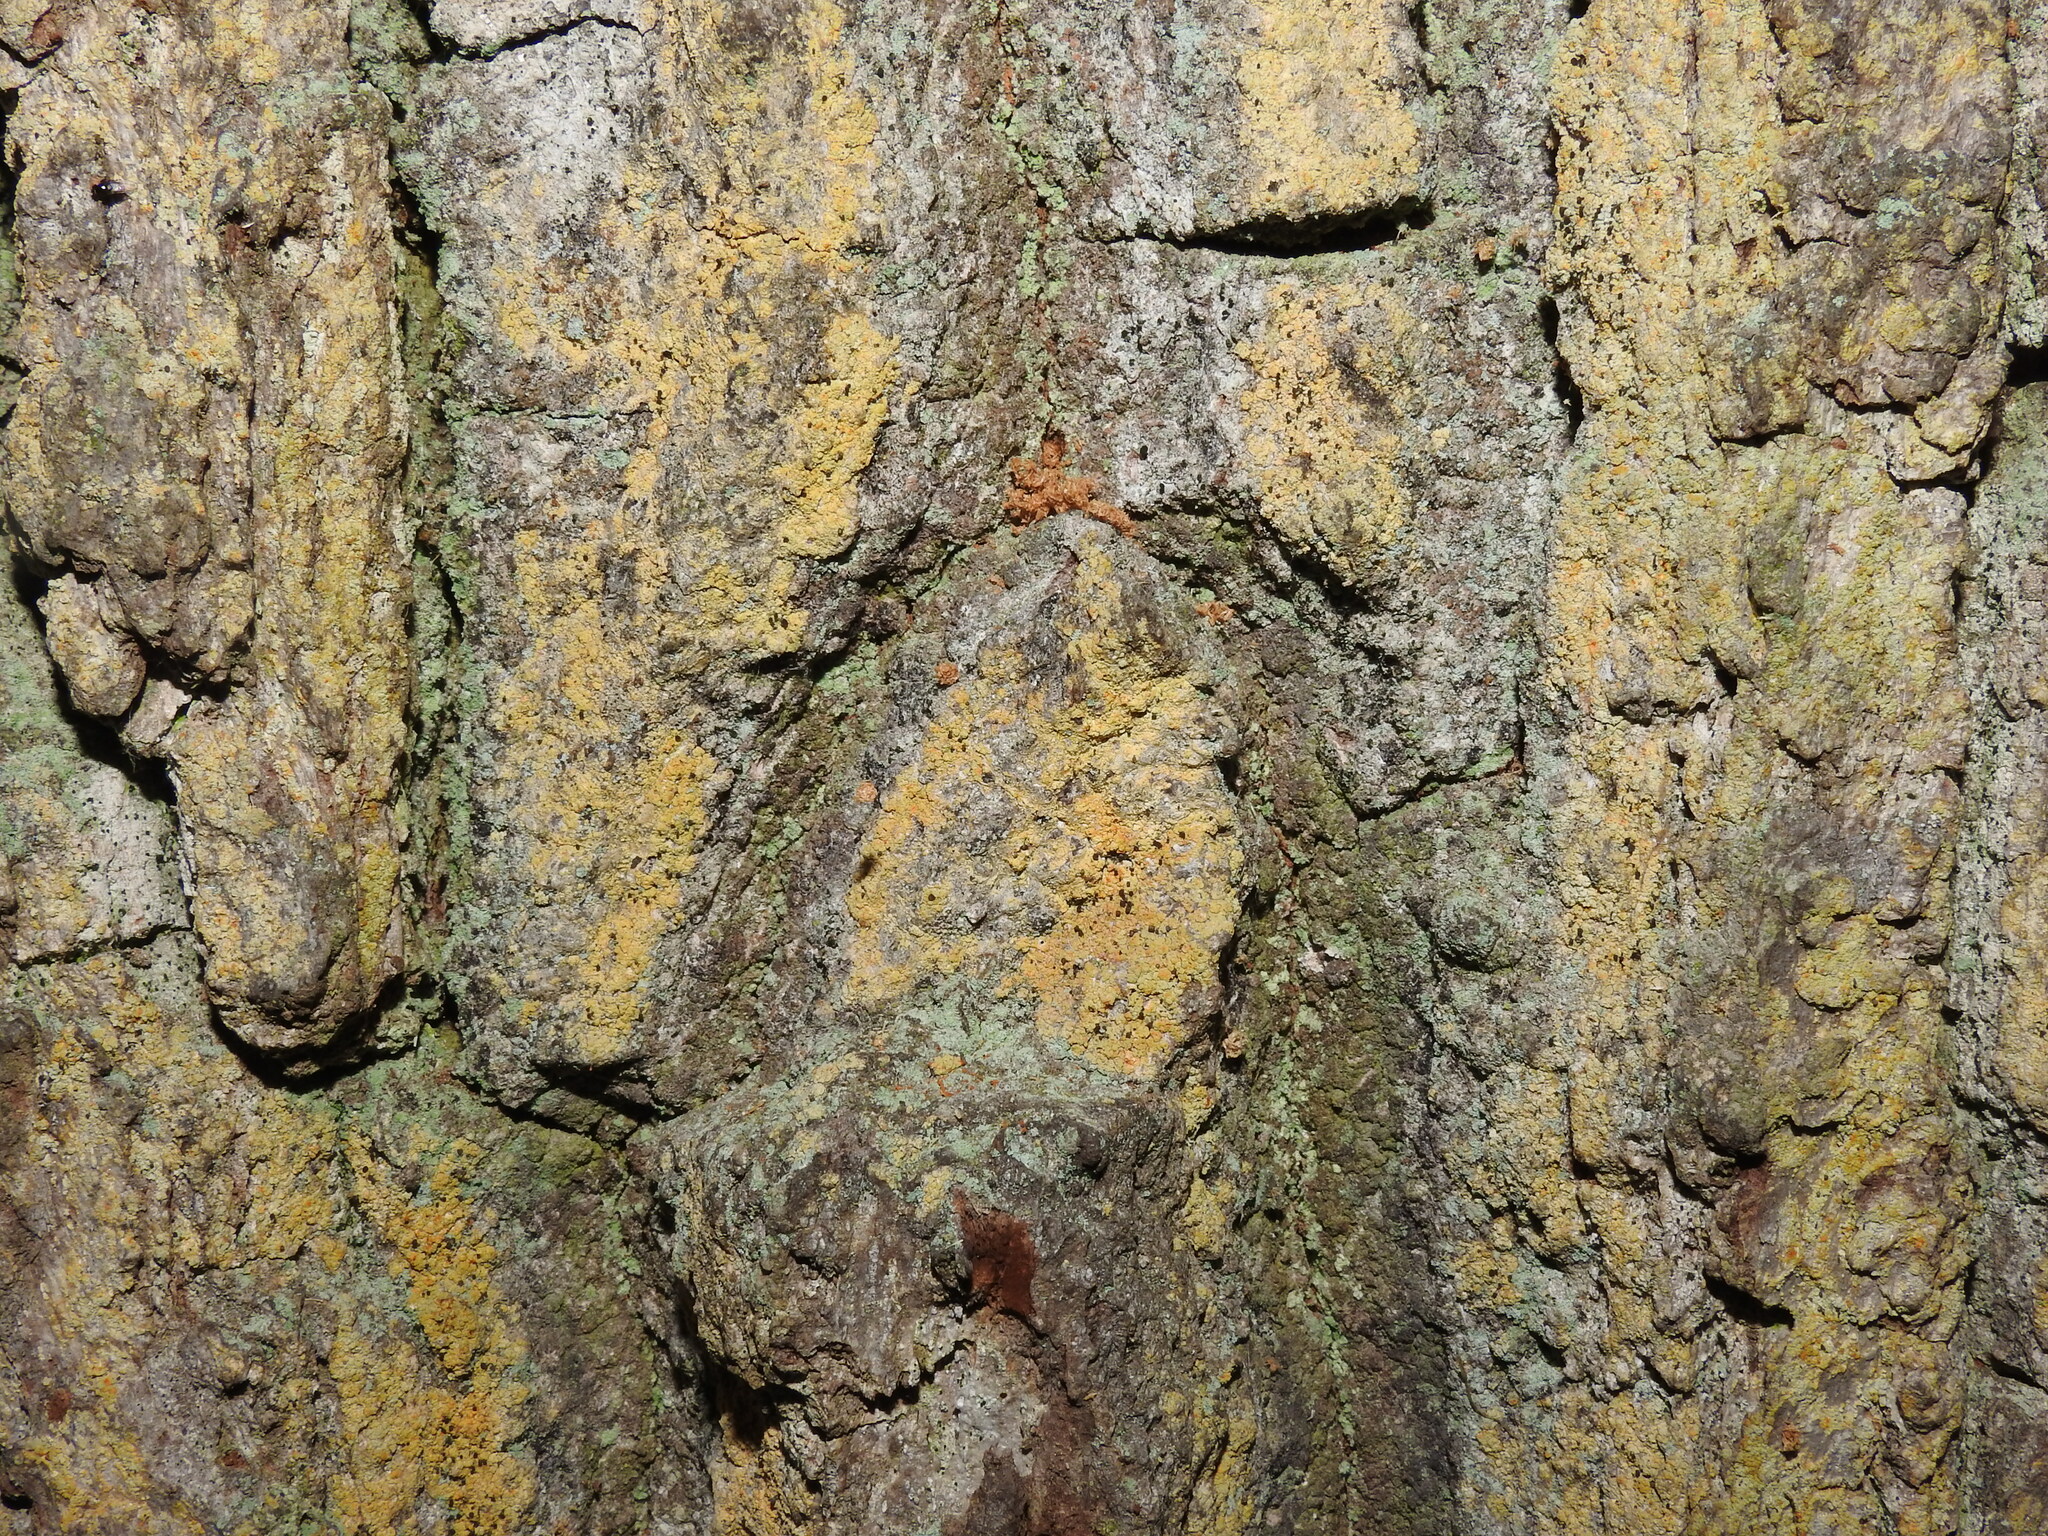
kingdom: Fungi
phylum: Ascomycota
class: Coniocybomycetes
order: Coniocybales
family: Coniocybaceae
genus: Chaenotheca
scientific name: Chaenotheca ferruginea
